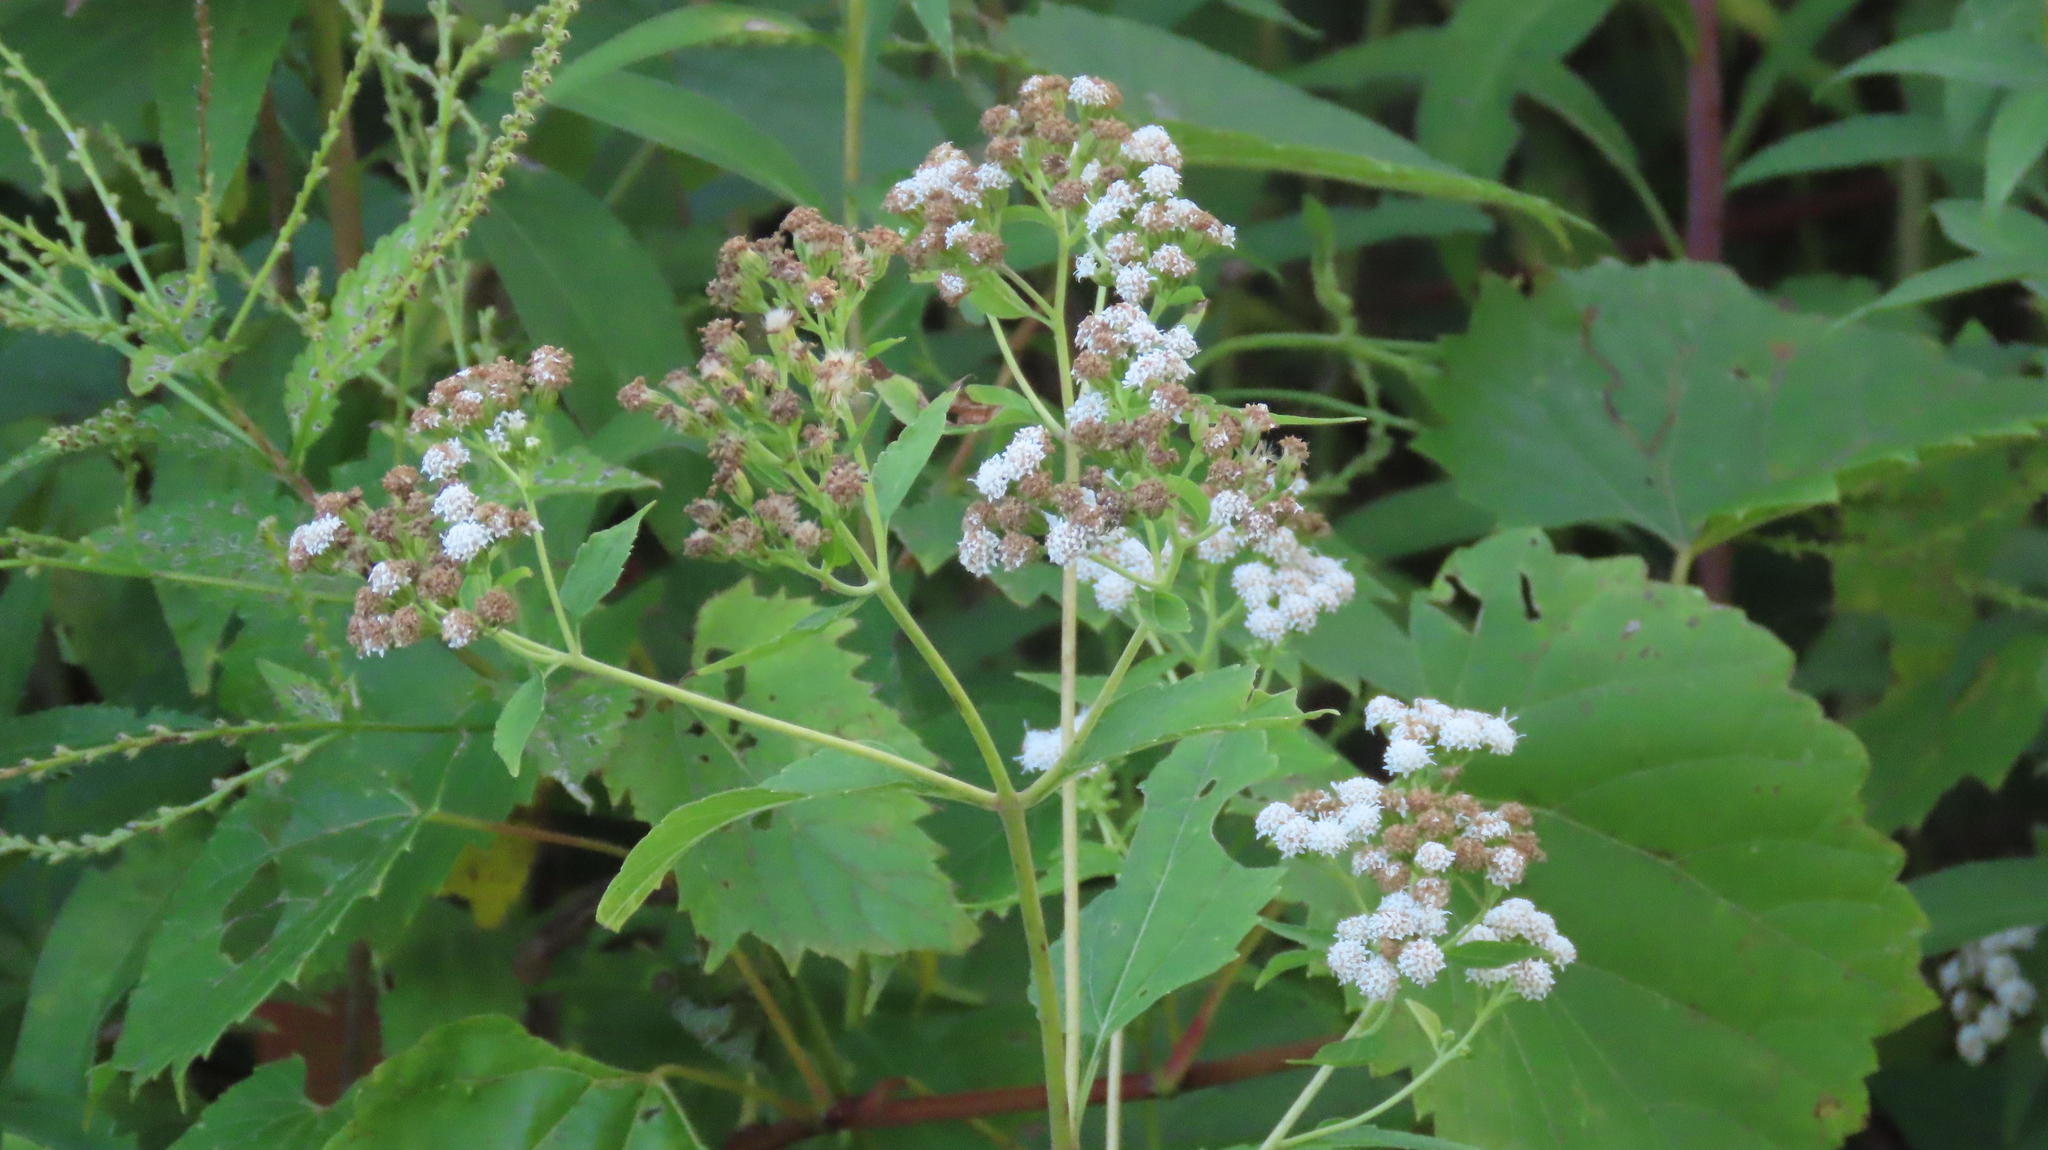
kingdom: Plantae
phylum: Tracheophyta
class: Magnoliopsida
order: Asterales
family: Asteraceae
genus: Ageratina
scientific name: Ageratina altissima
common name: White snakeroot
